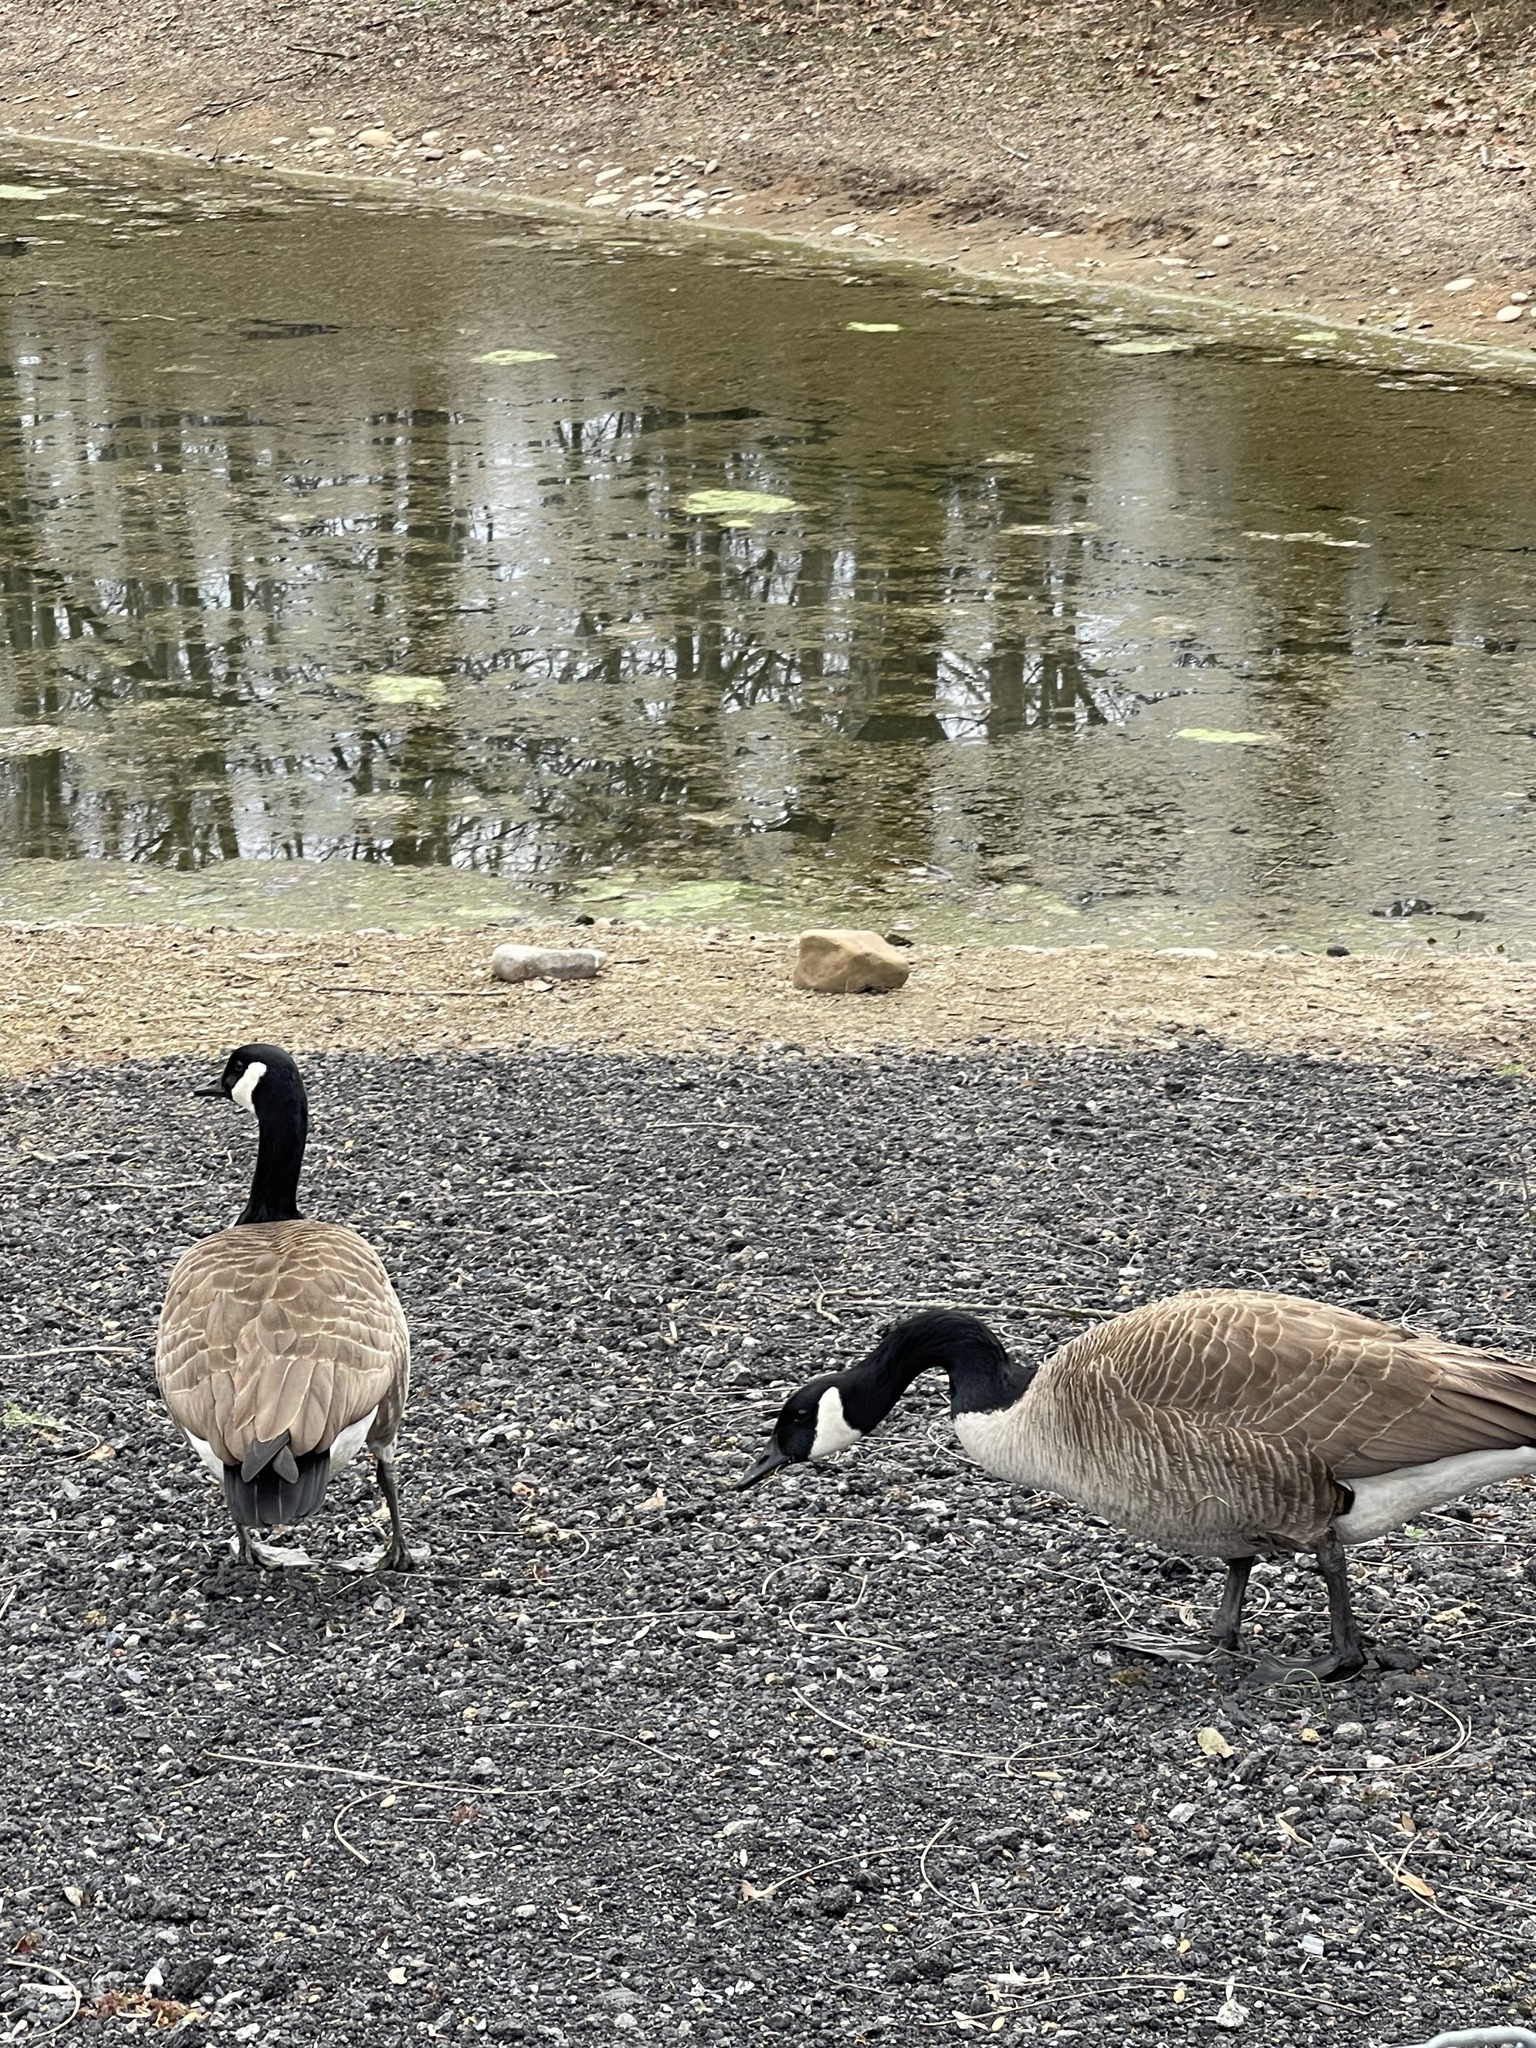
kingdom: Animalia
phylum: Chordata
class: Aves
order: Anseriformes
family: Anatidae
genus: Branta
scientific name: Branta canadensis
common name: Canada goose
